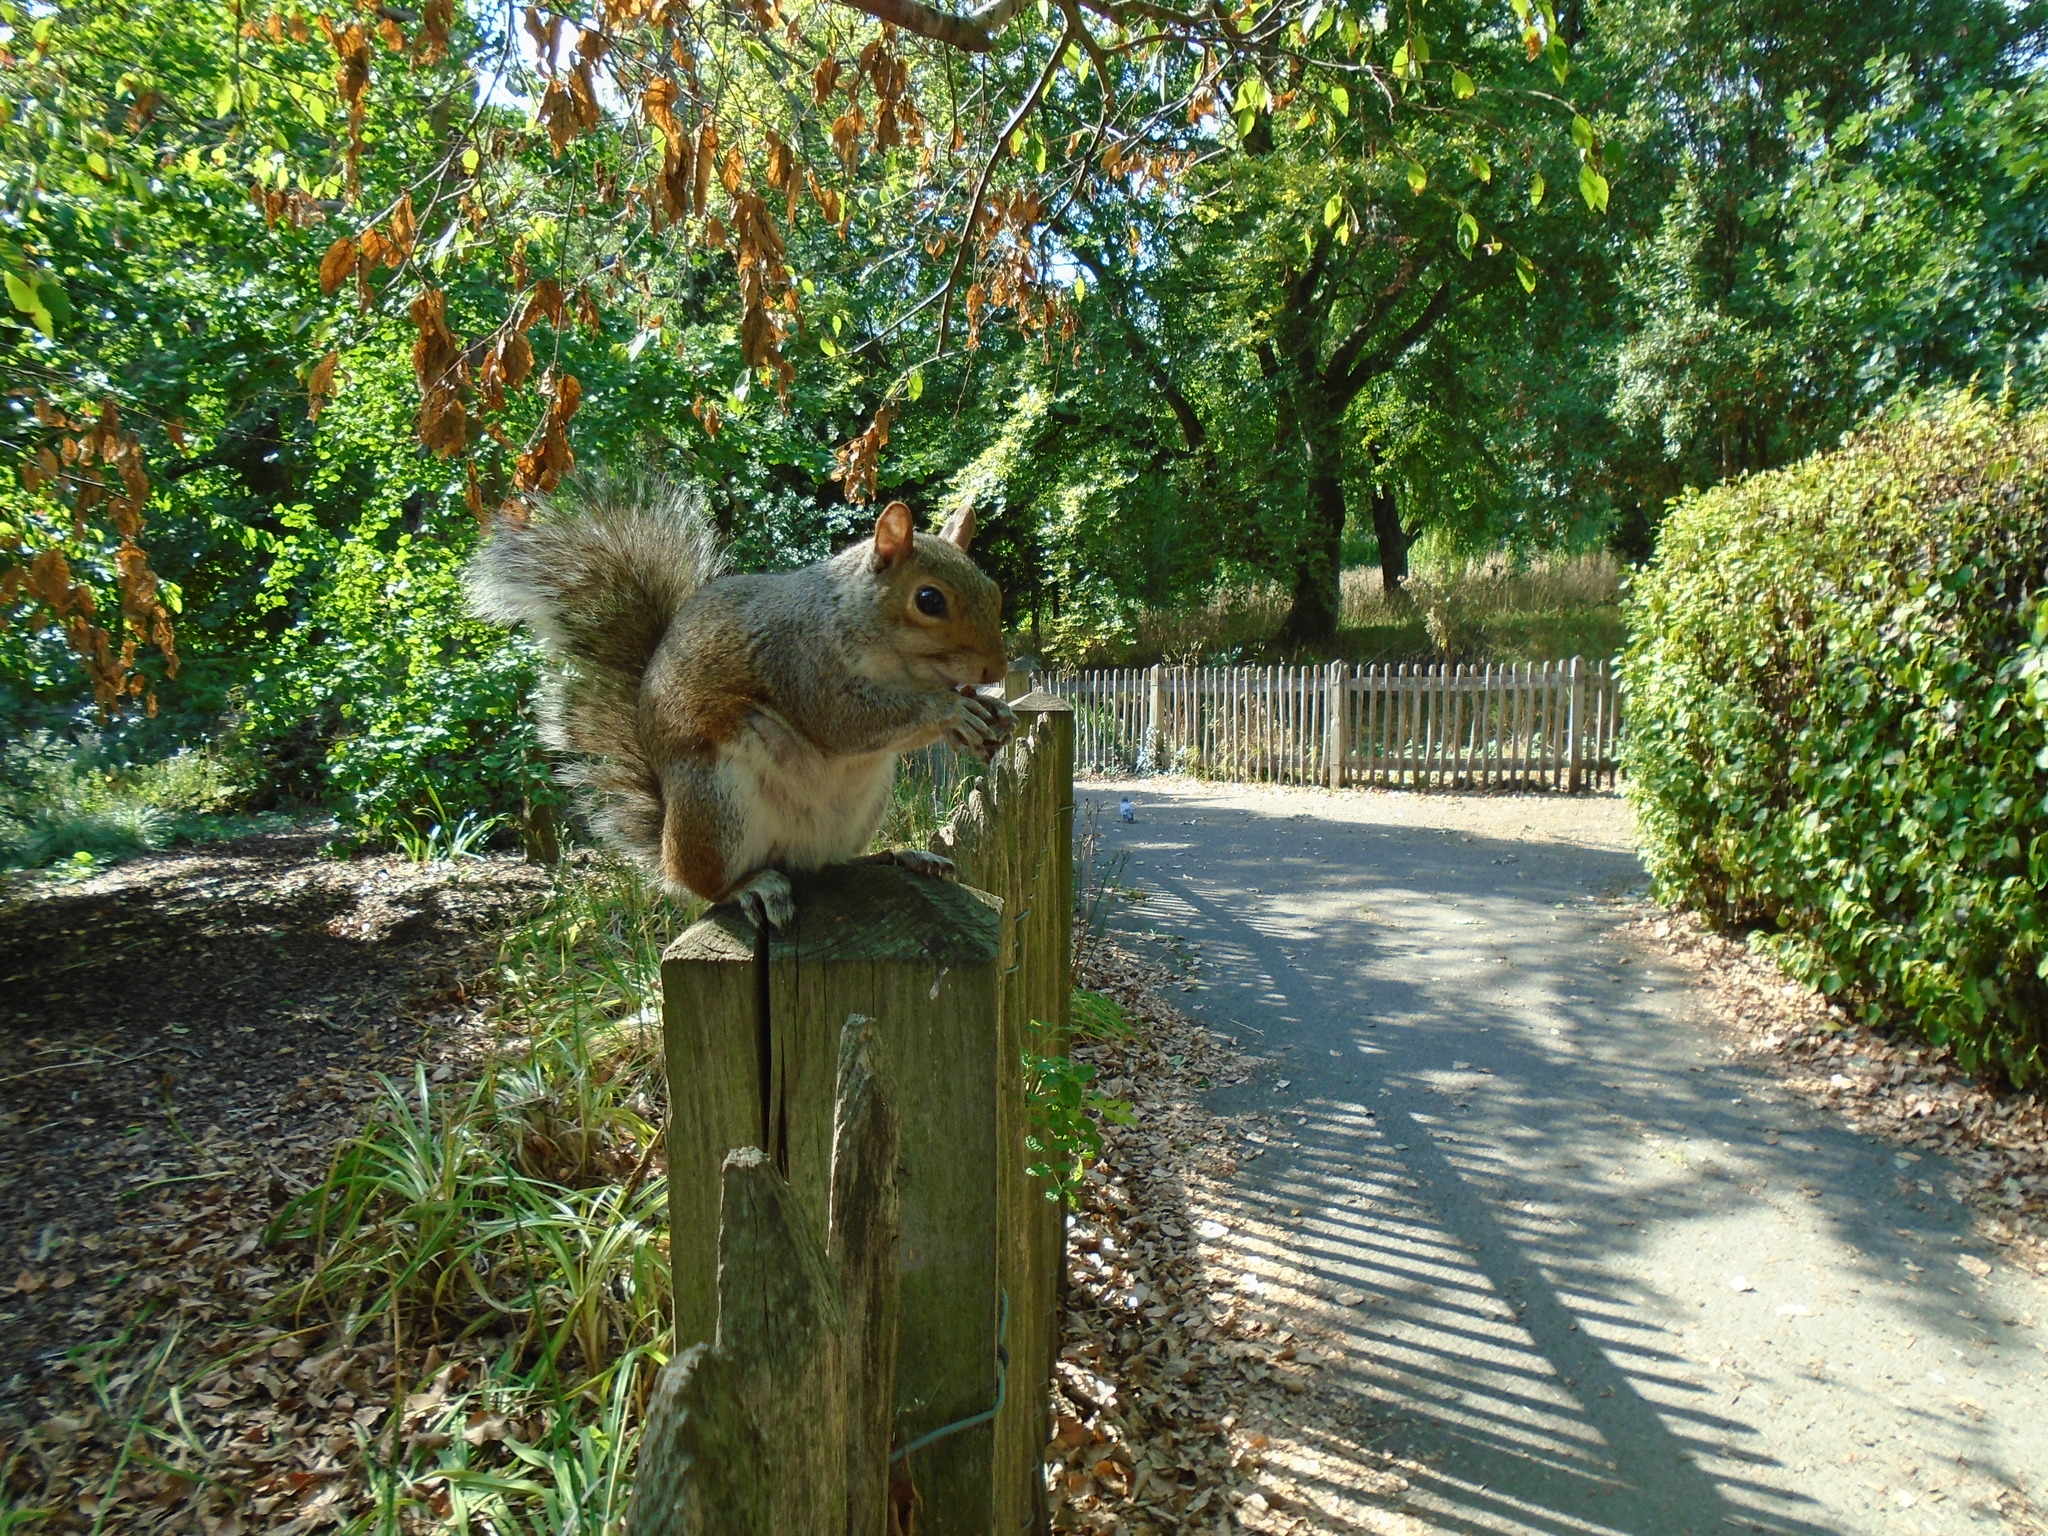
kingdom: Animalia
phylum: Chordata
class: Mammalia
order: Rodentia
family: Sciuridae
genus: Sciurus
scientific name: Sciurus carolinensis
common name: Eastern gray squirrel
